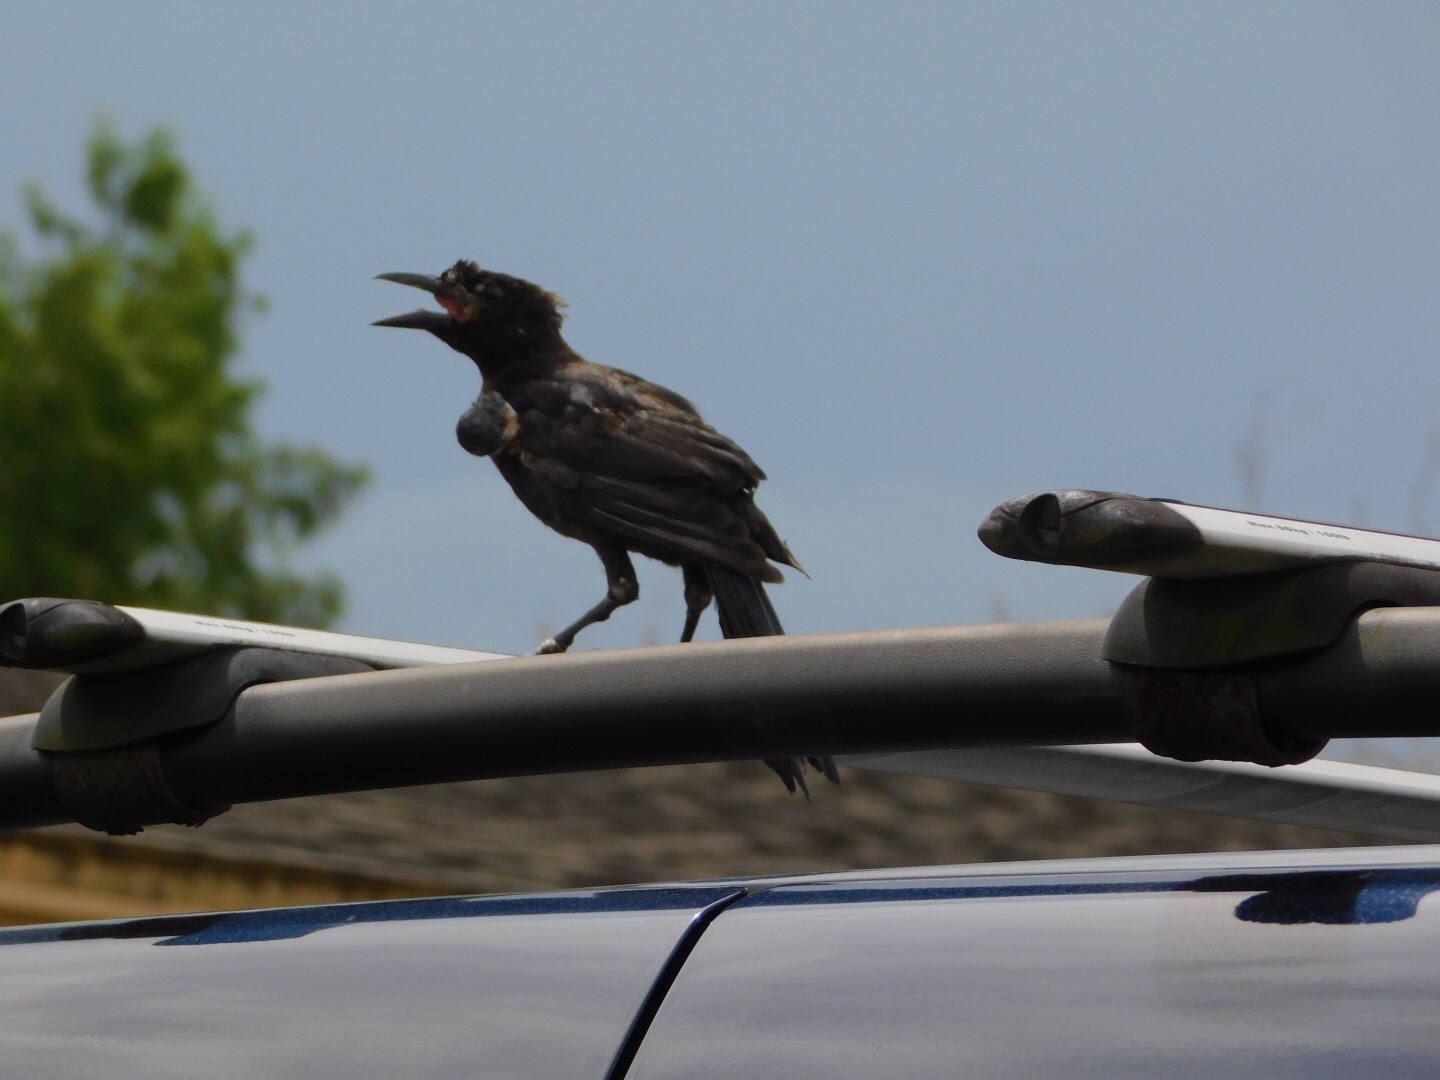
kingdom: Viruses
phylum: Nucleocytoviricota
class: Pokkesviricetes
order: Chitovirales
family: Poxviridae
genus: Avipoxvirus
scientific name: Avipoxvirus
